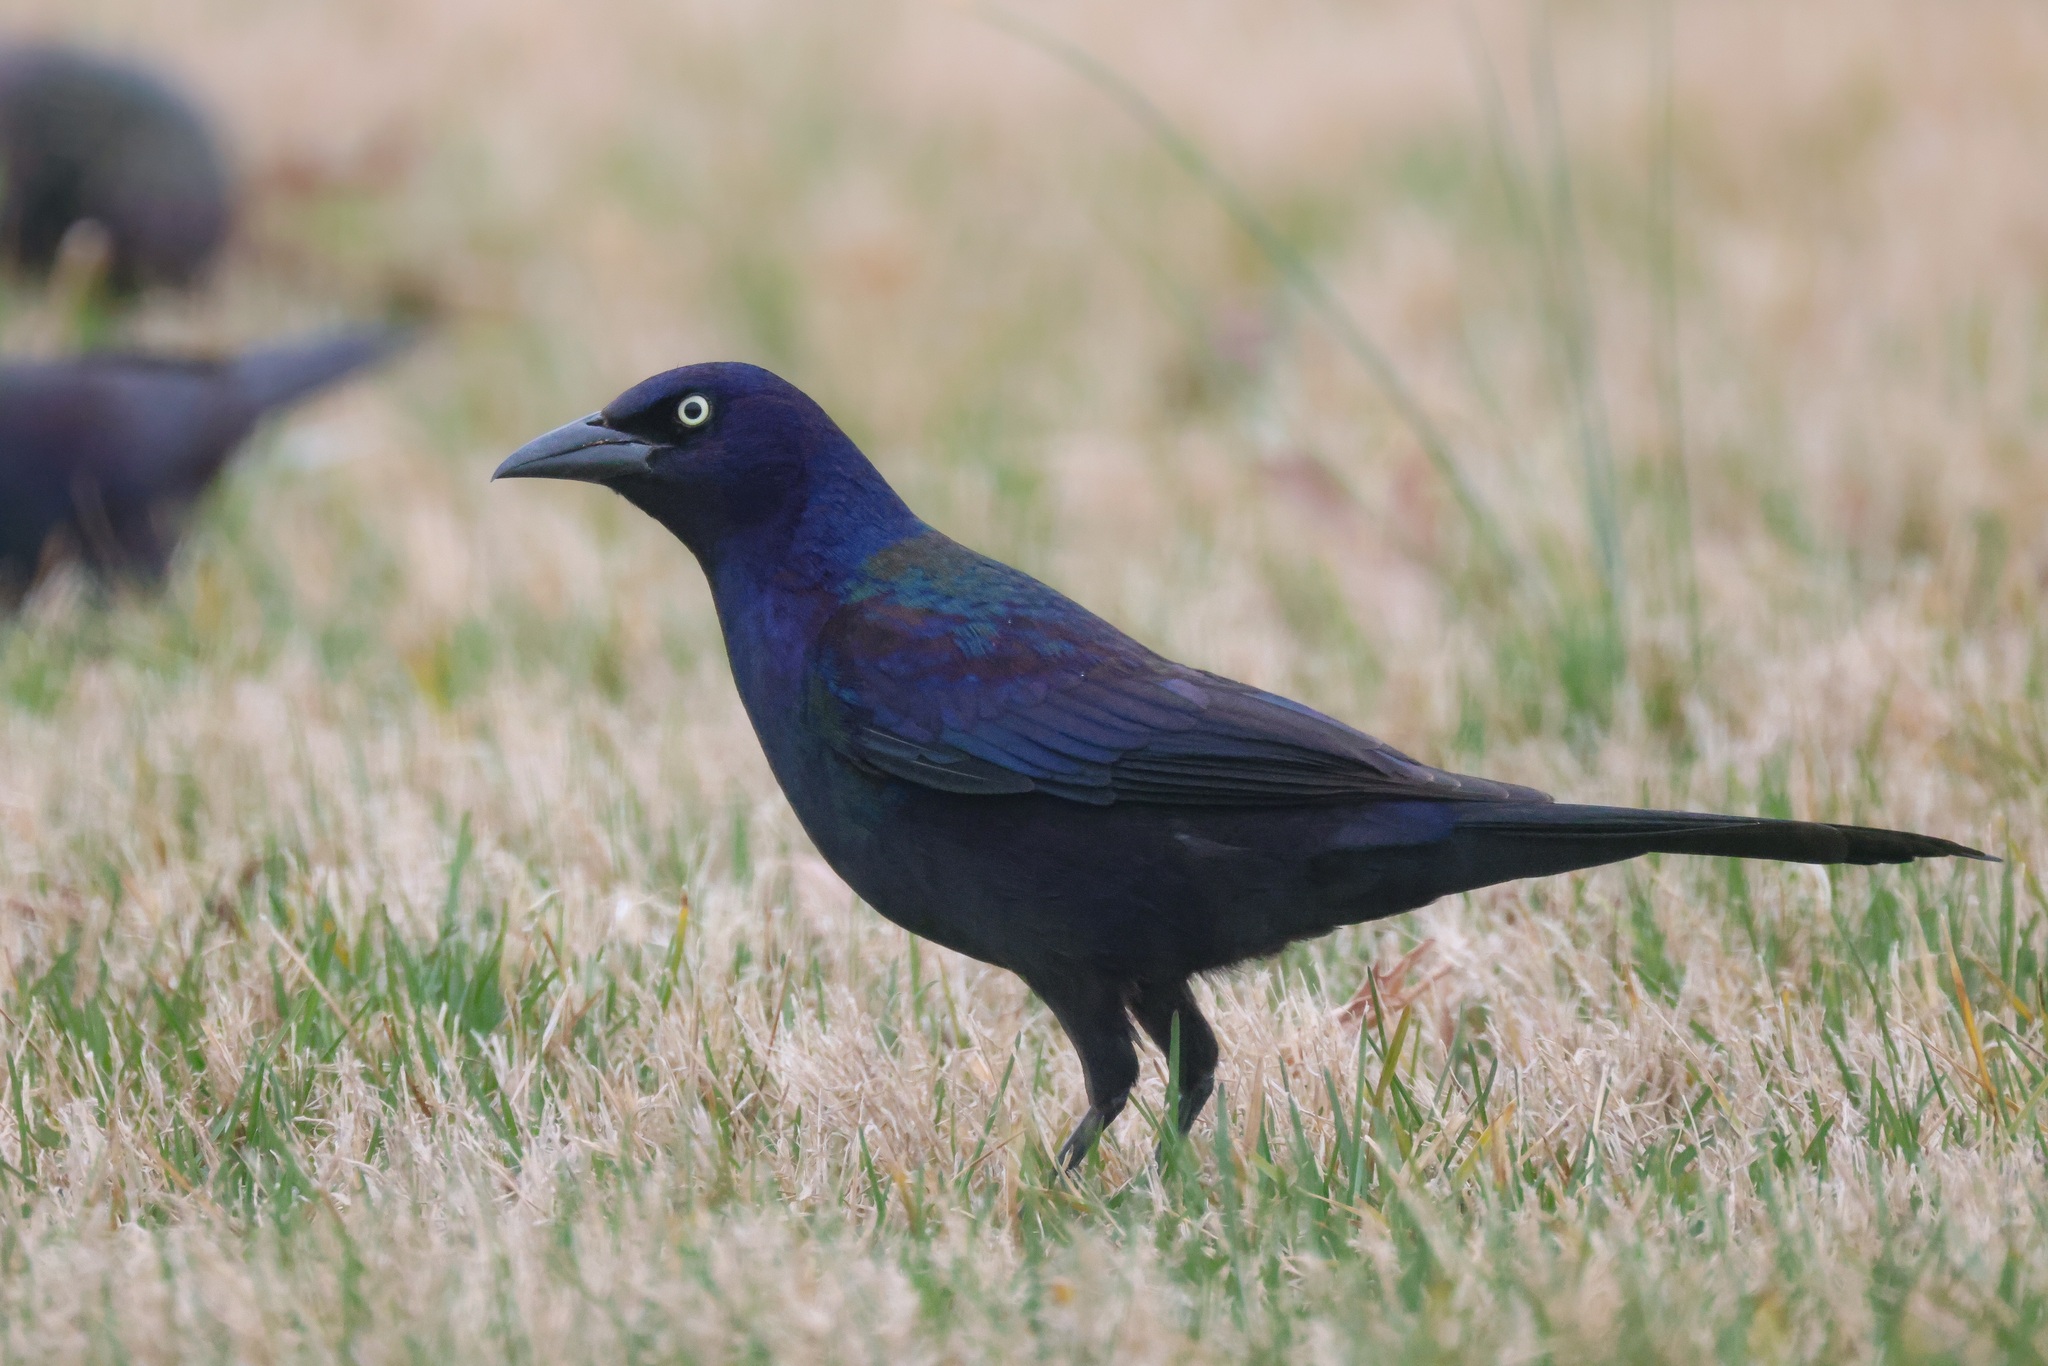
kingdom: Animalia
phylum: Chordata
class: Aves
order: Passeriformes
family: Icteridae
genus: Quiscalus
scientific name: Quiscalus quiscula
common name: Common grackle
